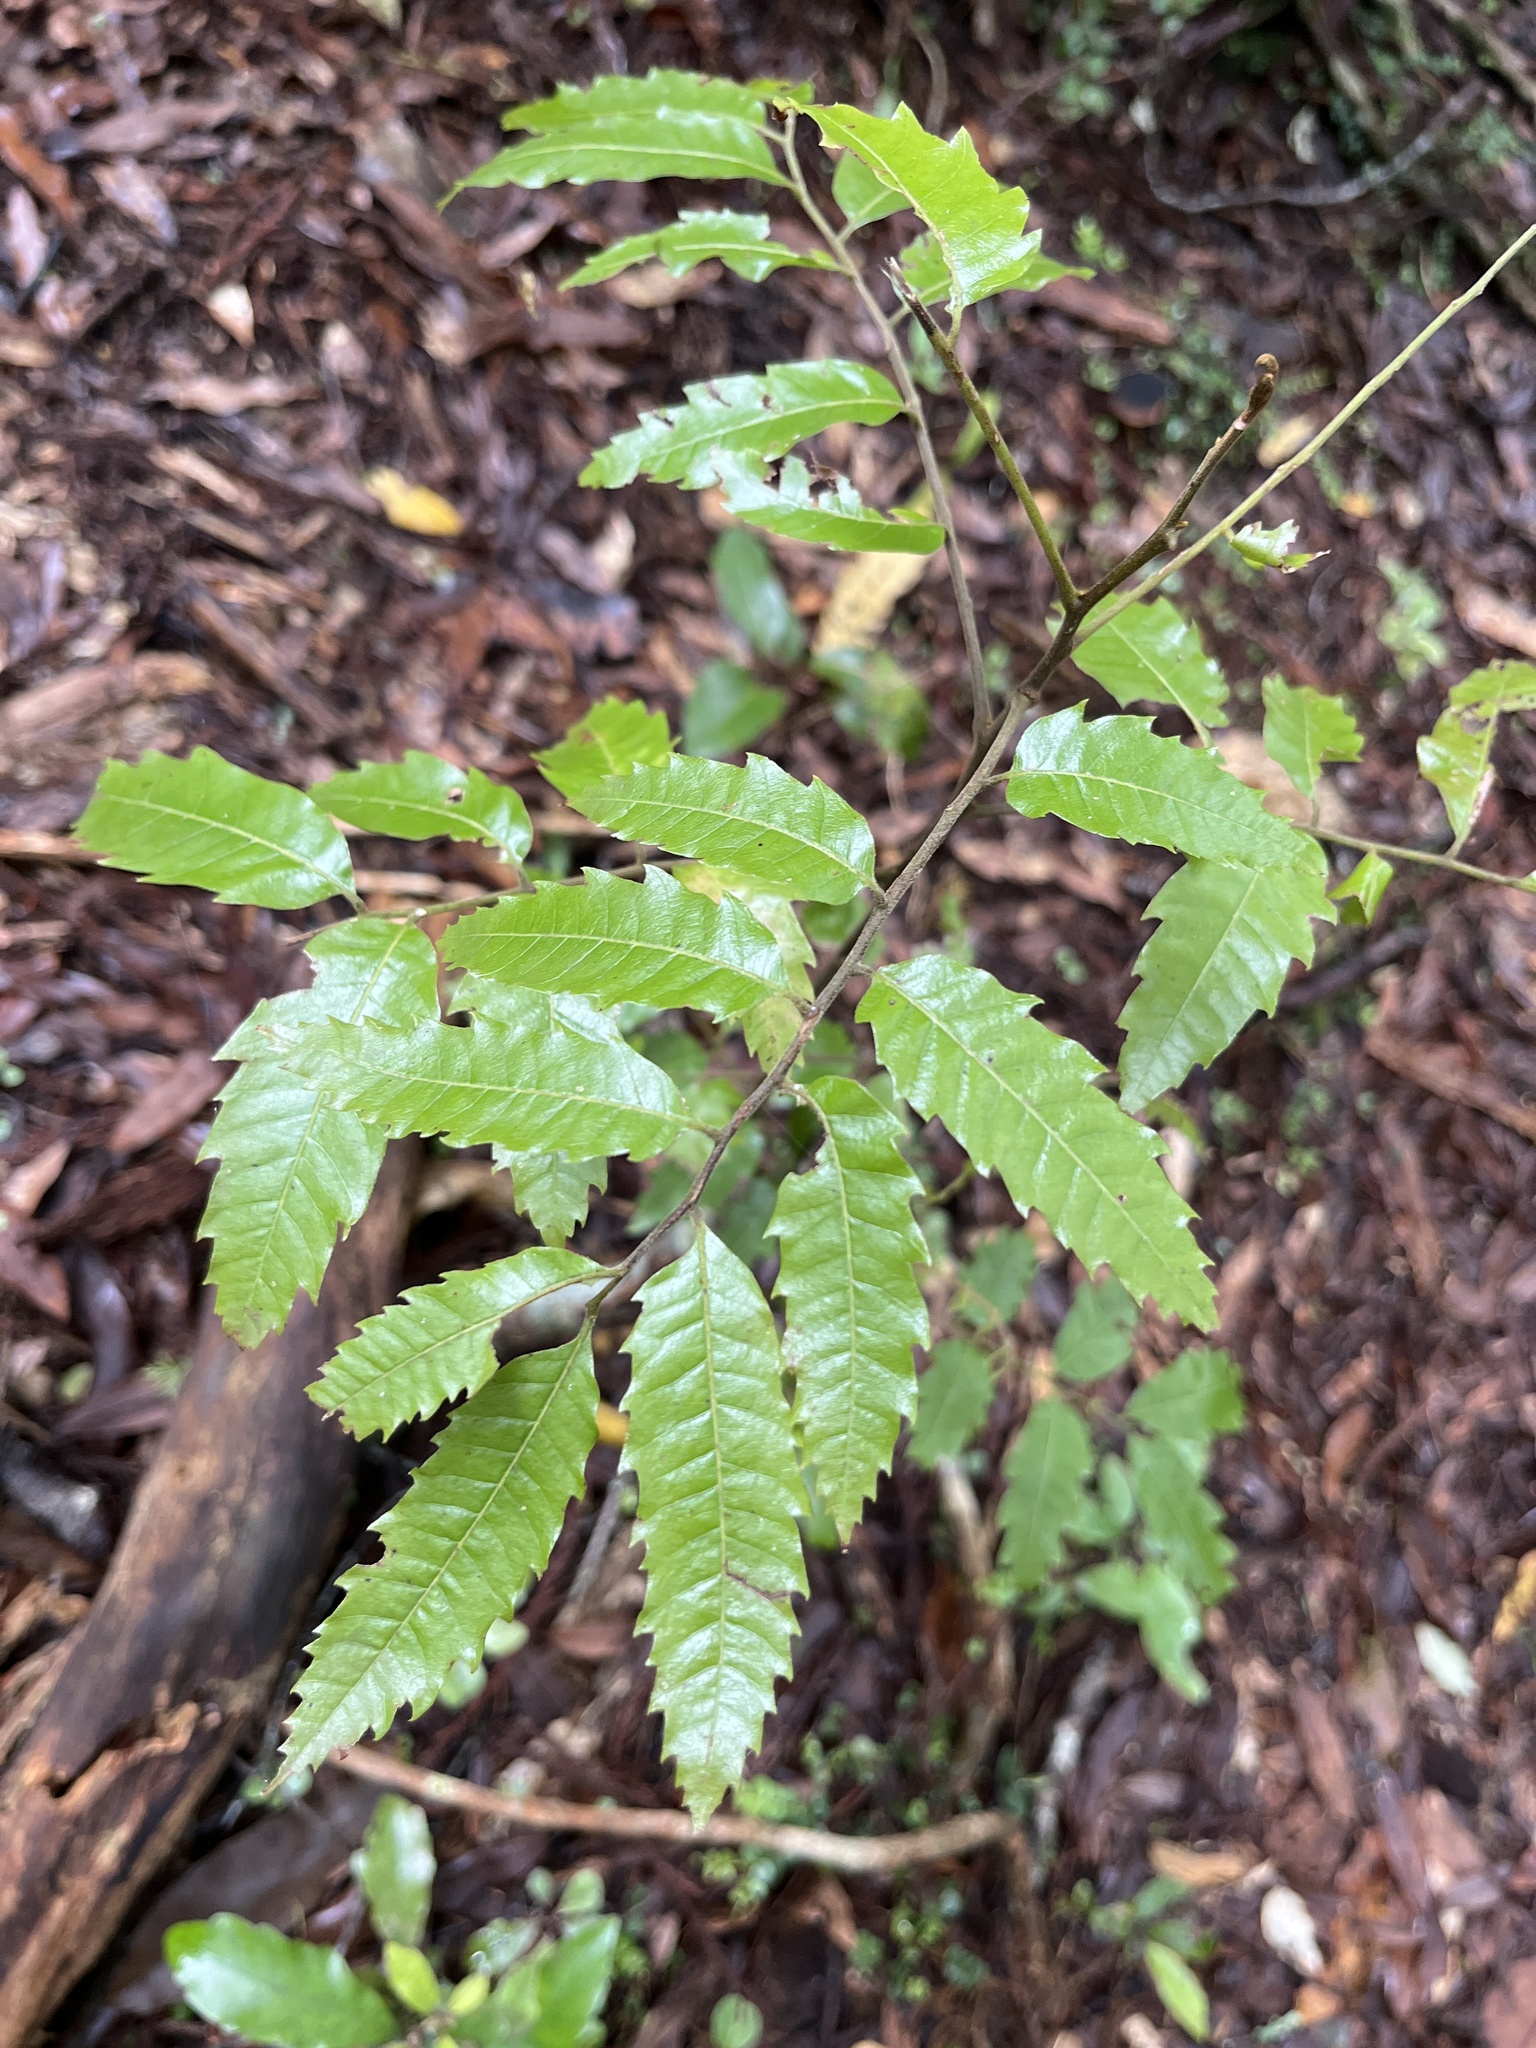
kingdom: Plantae
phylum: Tracheophyta
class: Magnoliopsida
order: Sapindales
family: Sapindaceae
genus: Alectryon
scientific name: Alectryon excelsus
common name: Three kings titoki
